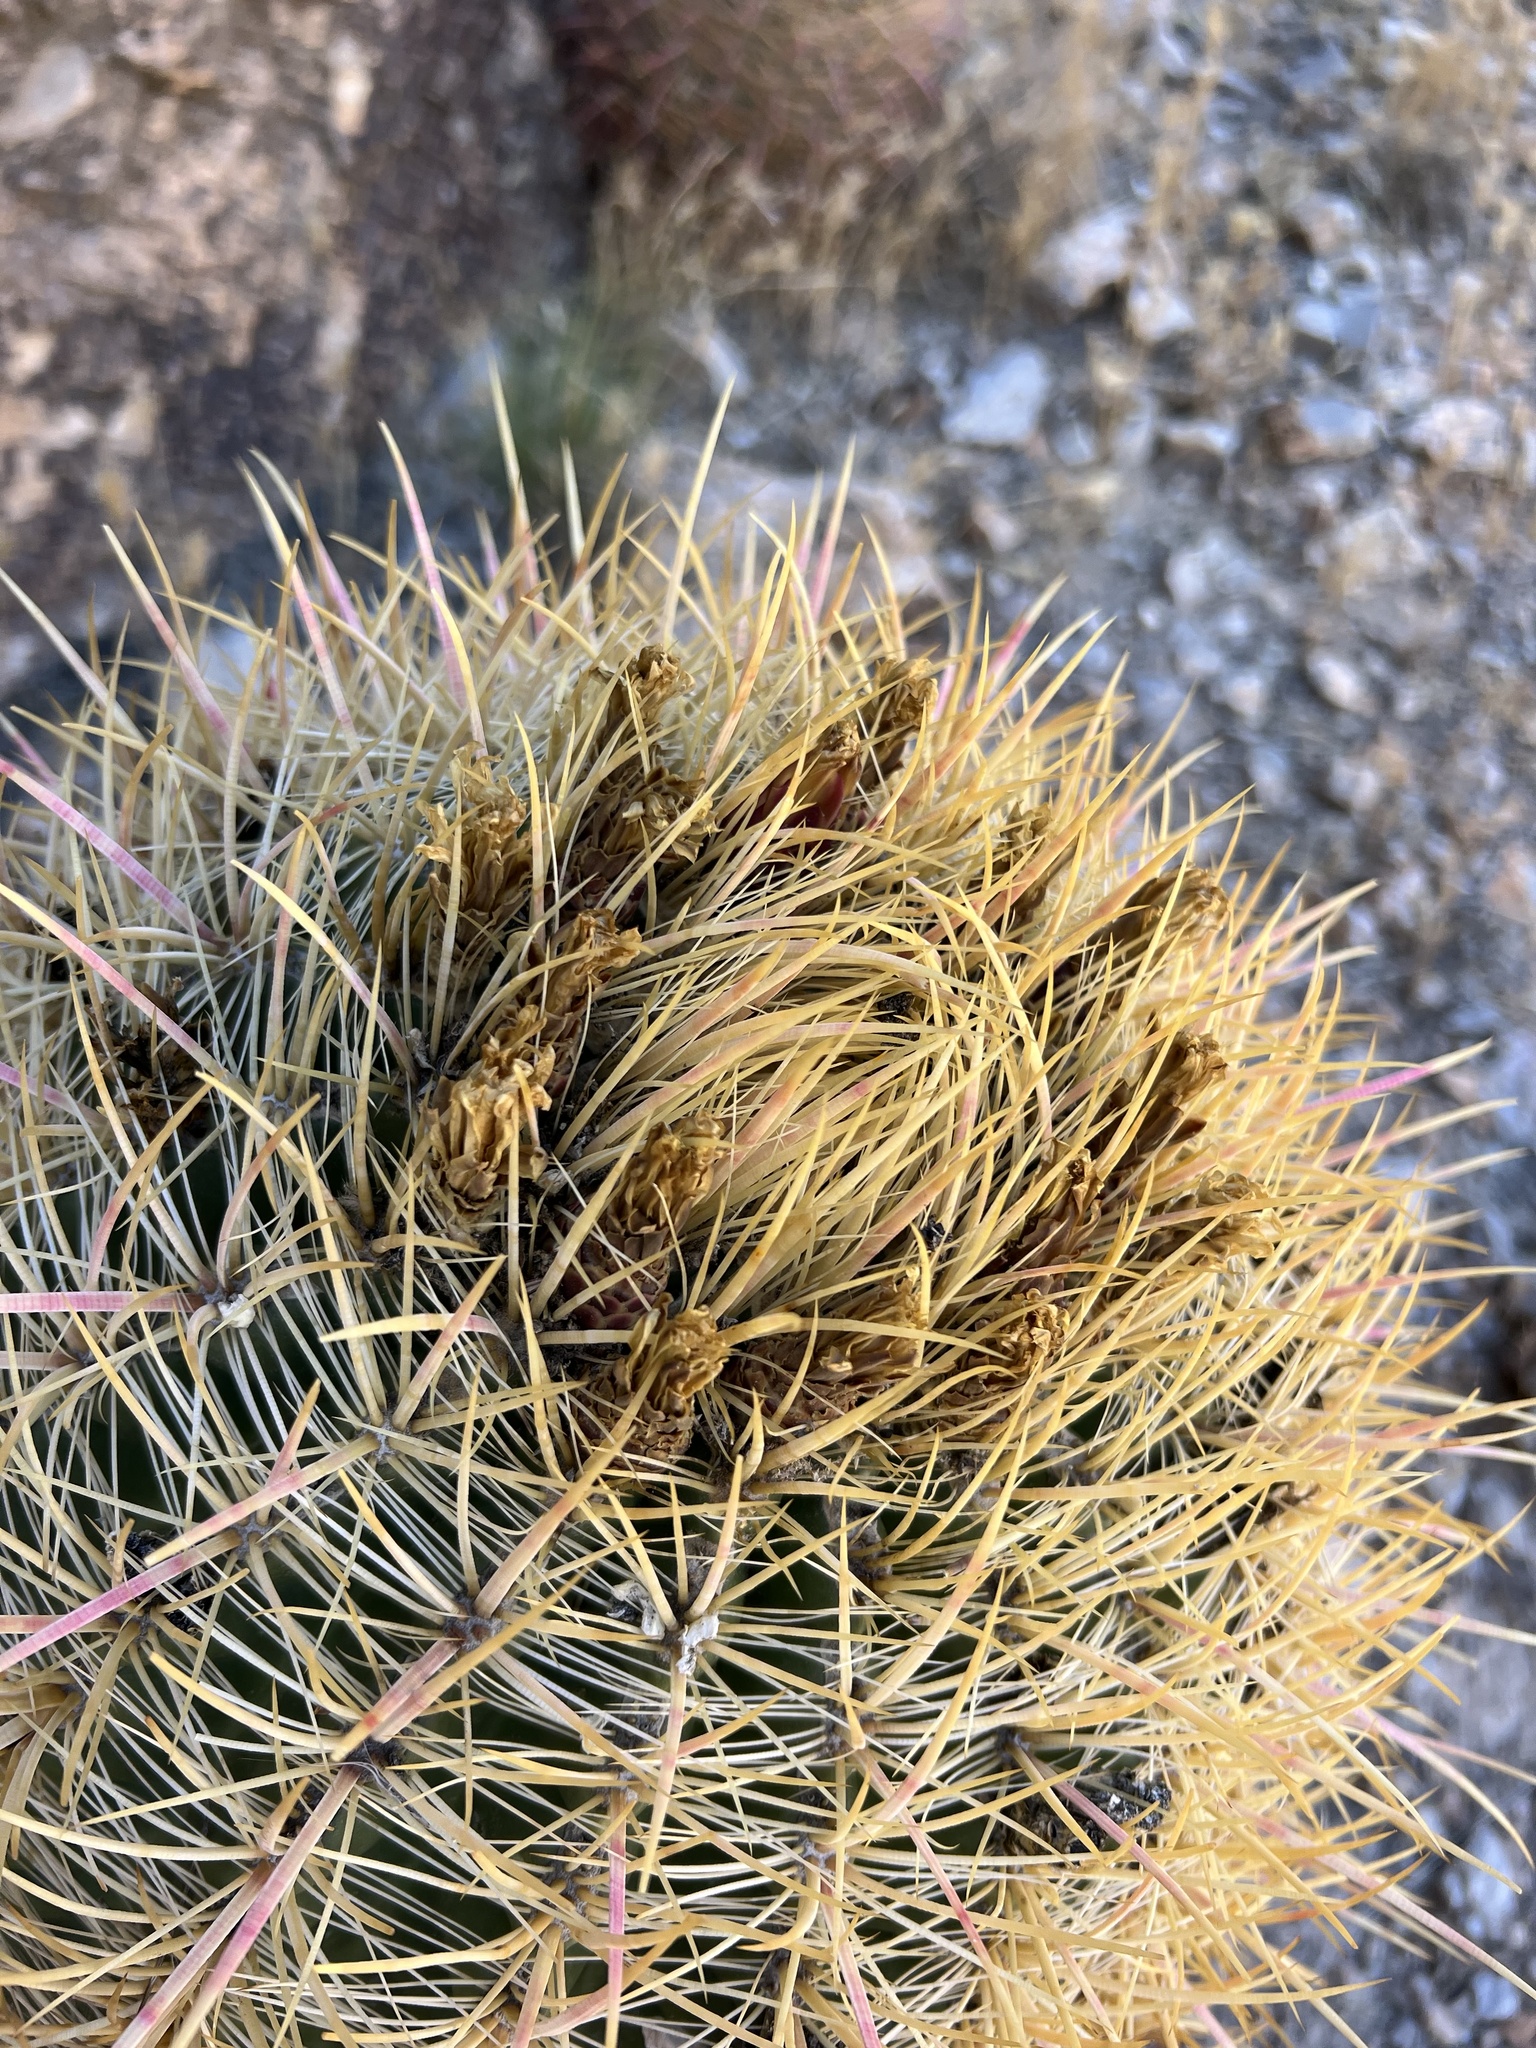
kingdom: Plantae
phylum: Tracheophyta
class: Magnoliopsida
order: Caryophyllales
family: Cactaceae
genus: Ferocactus
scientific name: Ferocactus cylindraceus
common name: California barrel cactus
